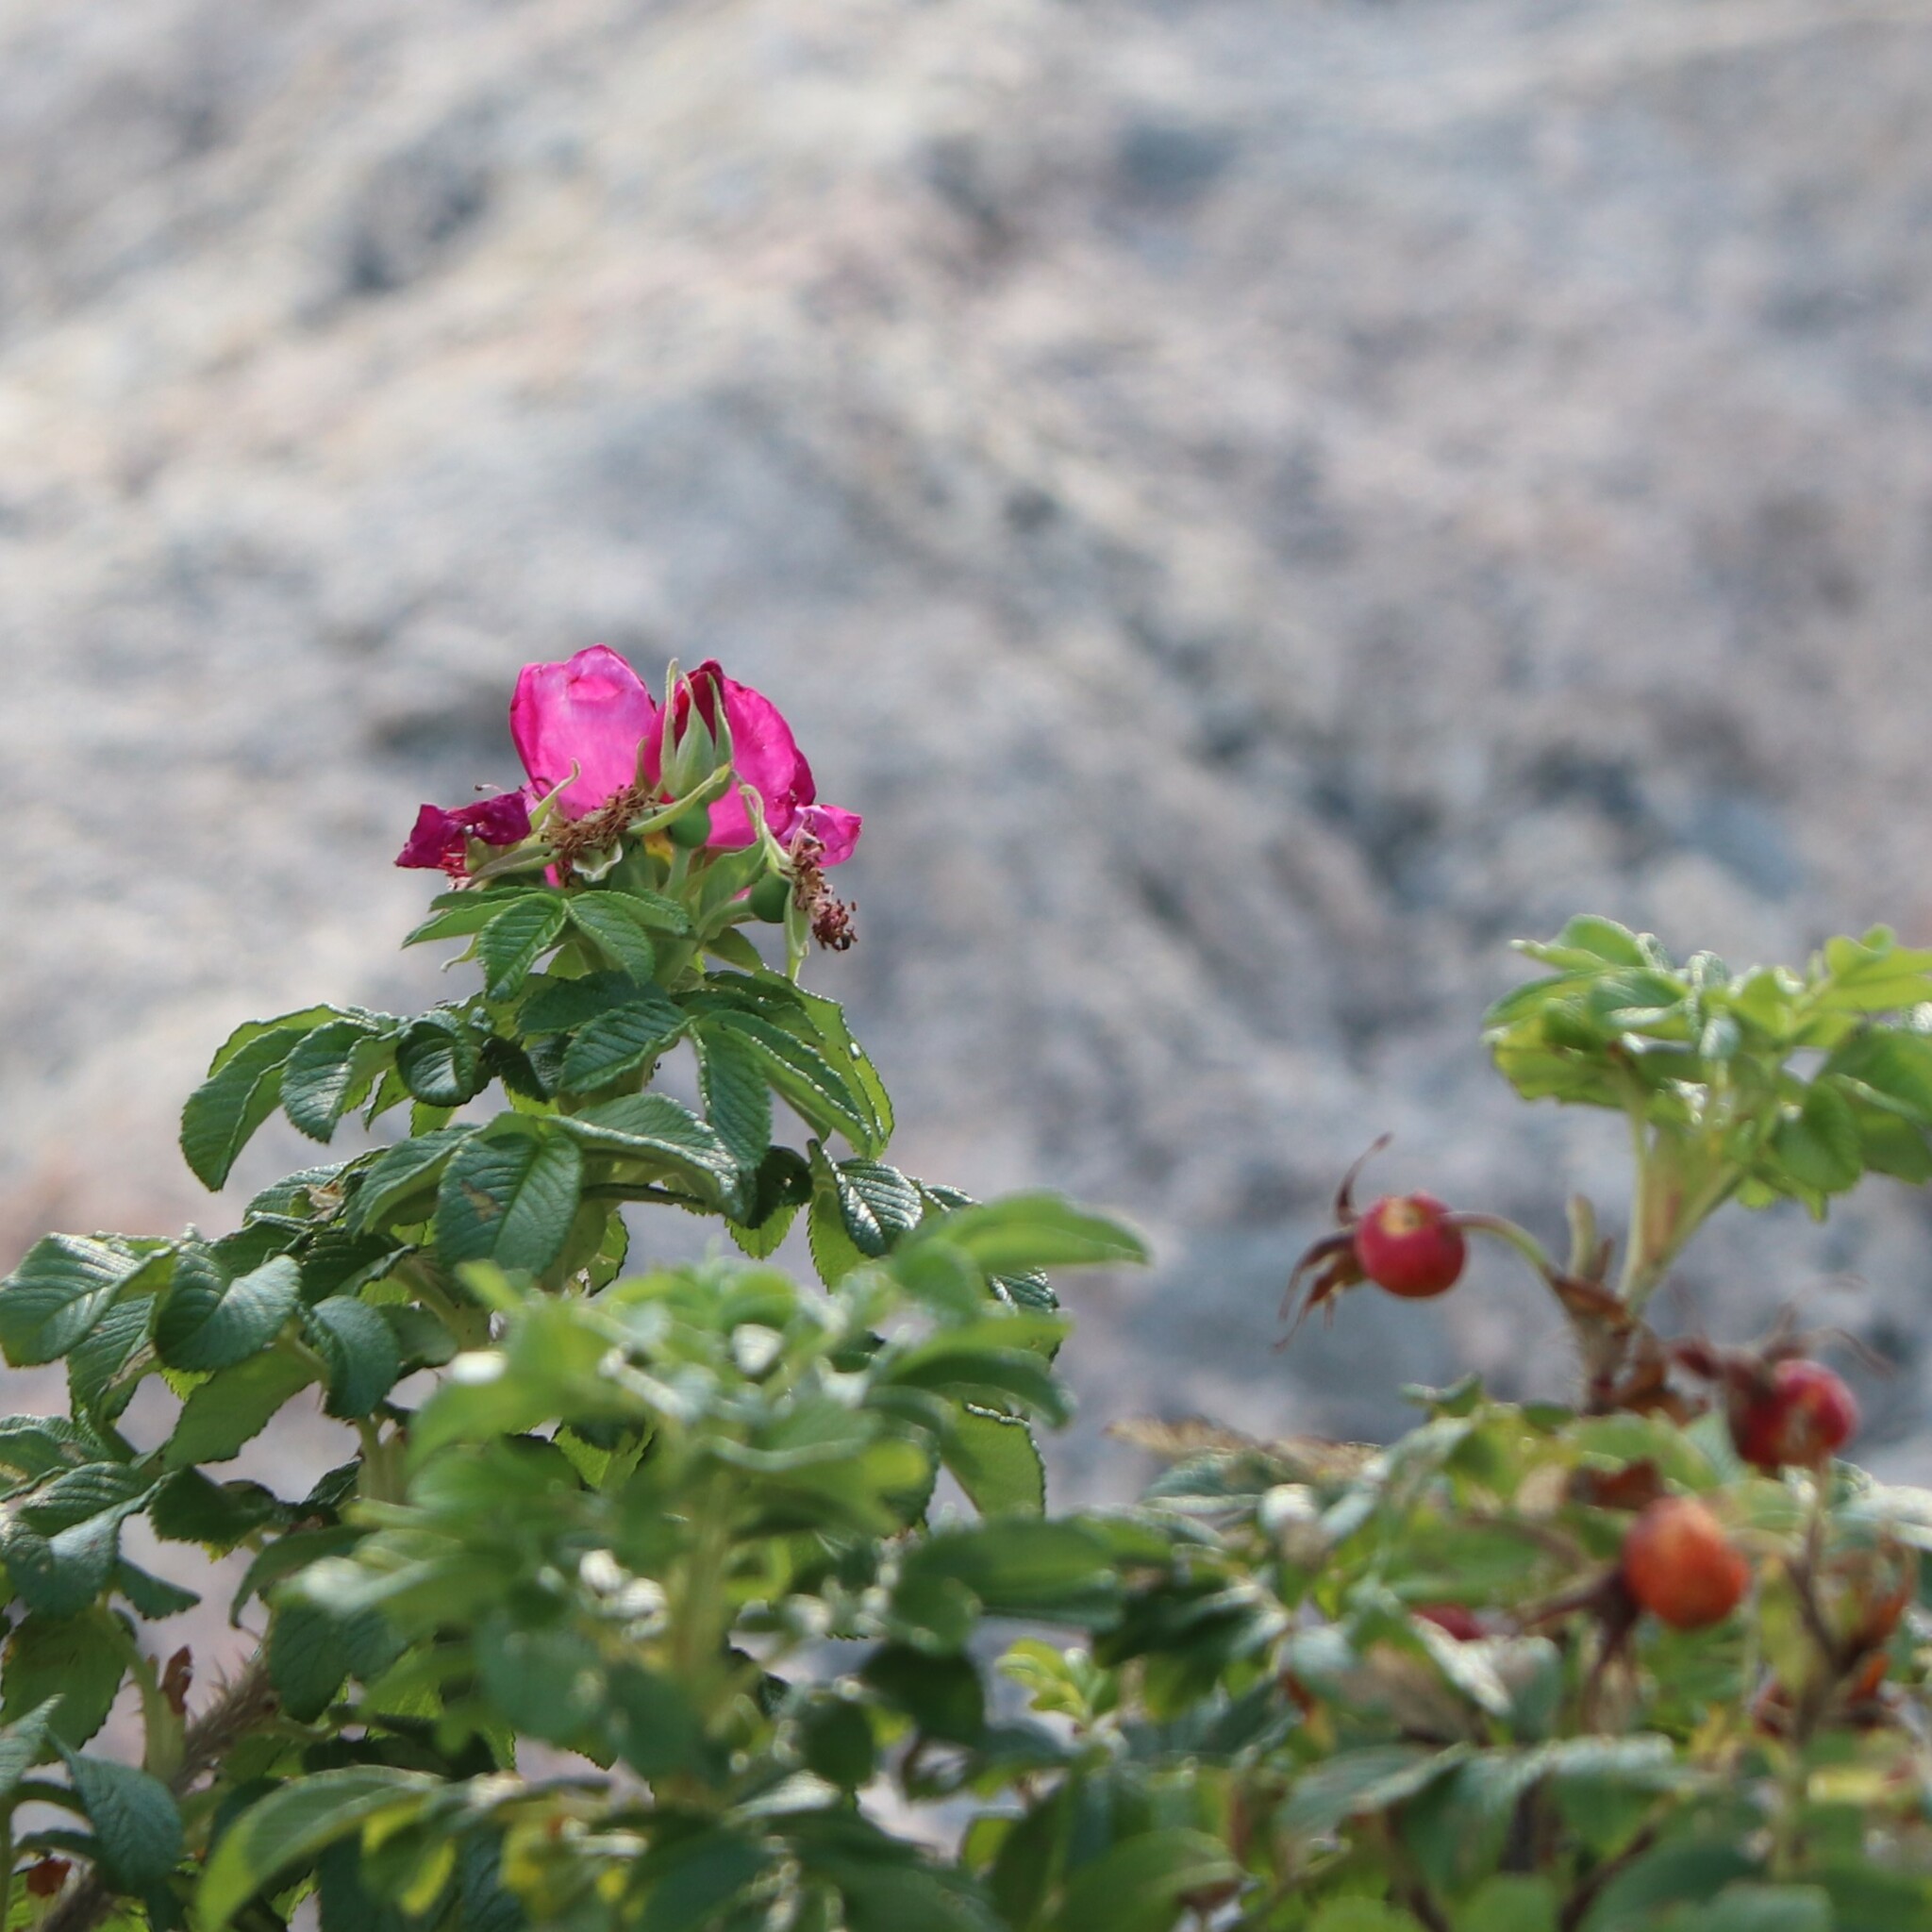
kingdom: Plantae
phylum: Tracheophyta
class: Magnoliopsida
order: Rosales
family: Rosaceae
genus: Rosa
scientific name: Rosa rugosa
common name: Japanese rose
